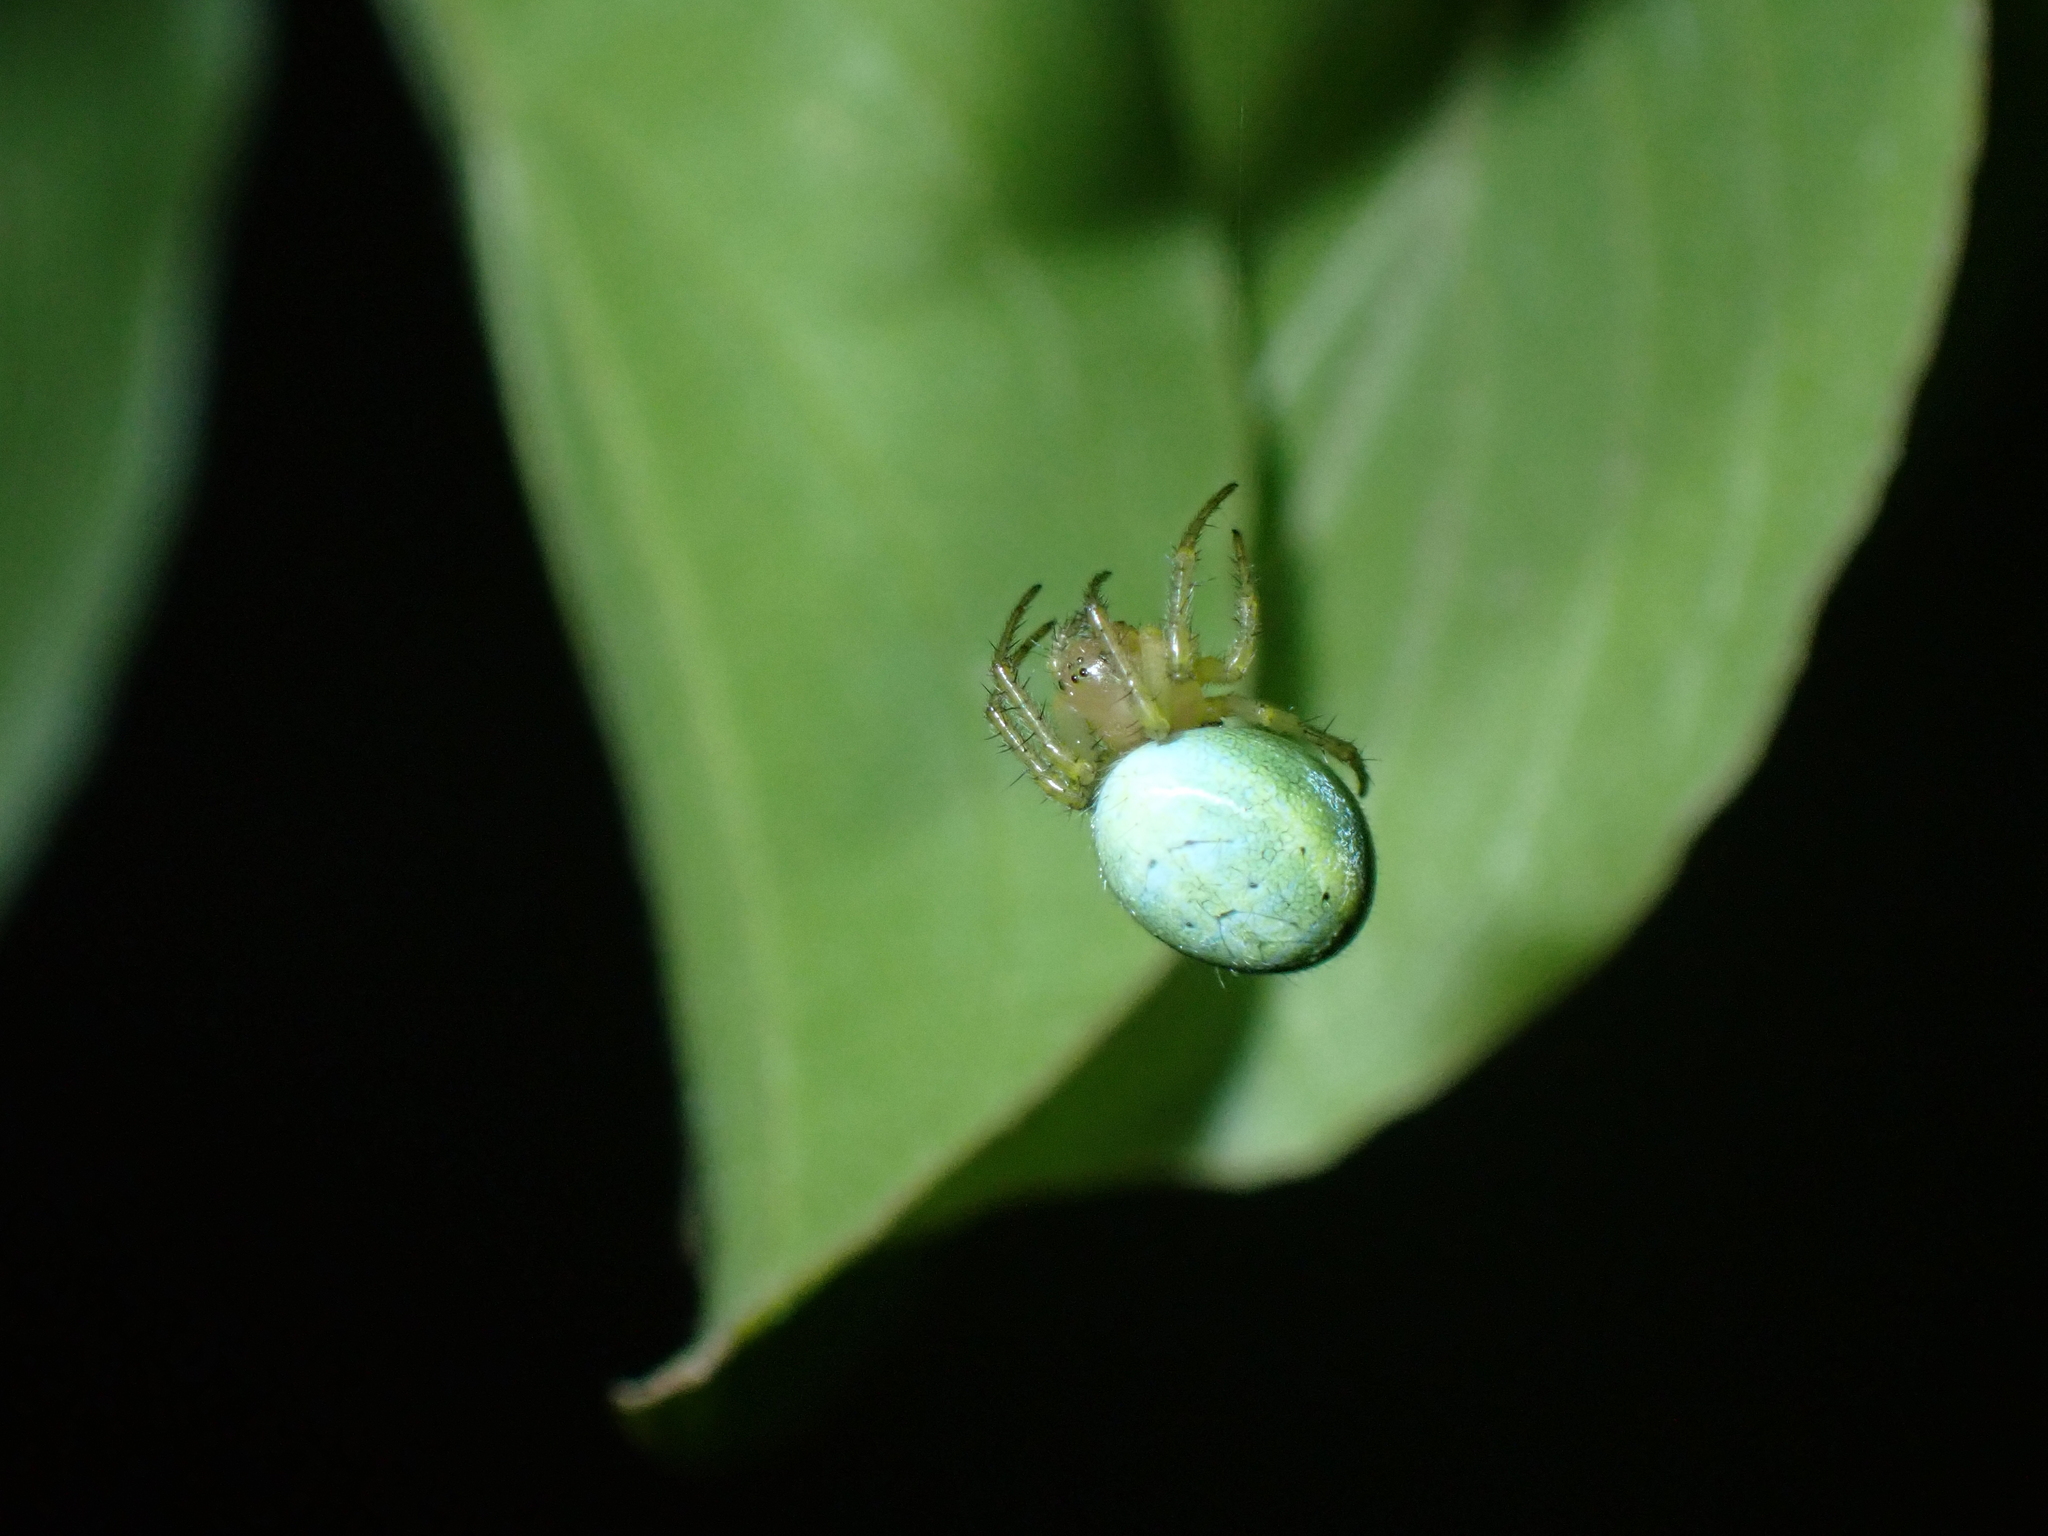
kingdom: Animalia
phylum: Arthropoda
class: Arachnida
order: Araneae
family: Araneidae
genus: Araniella
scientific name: Araniella
